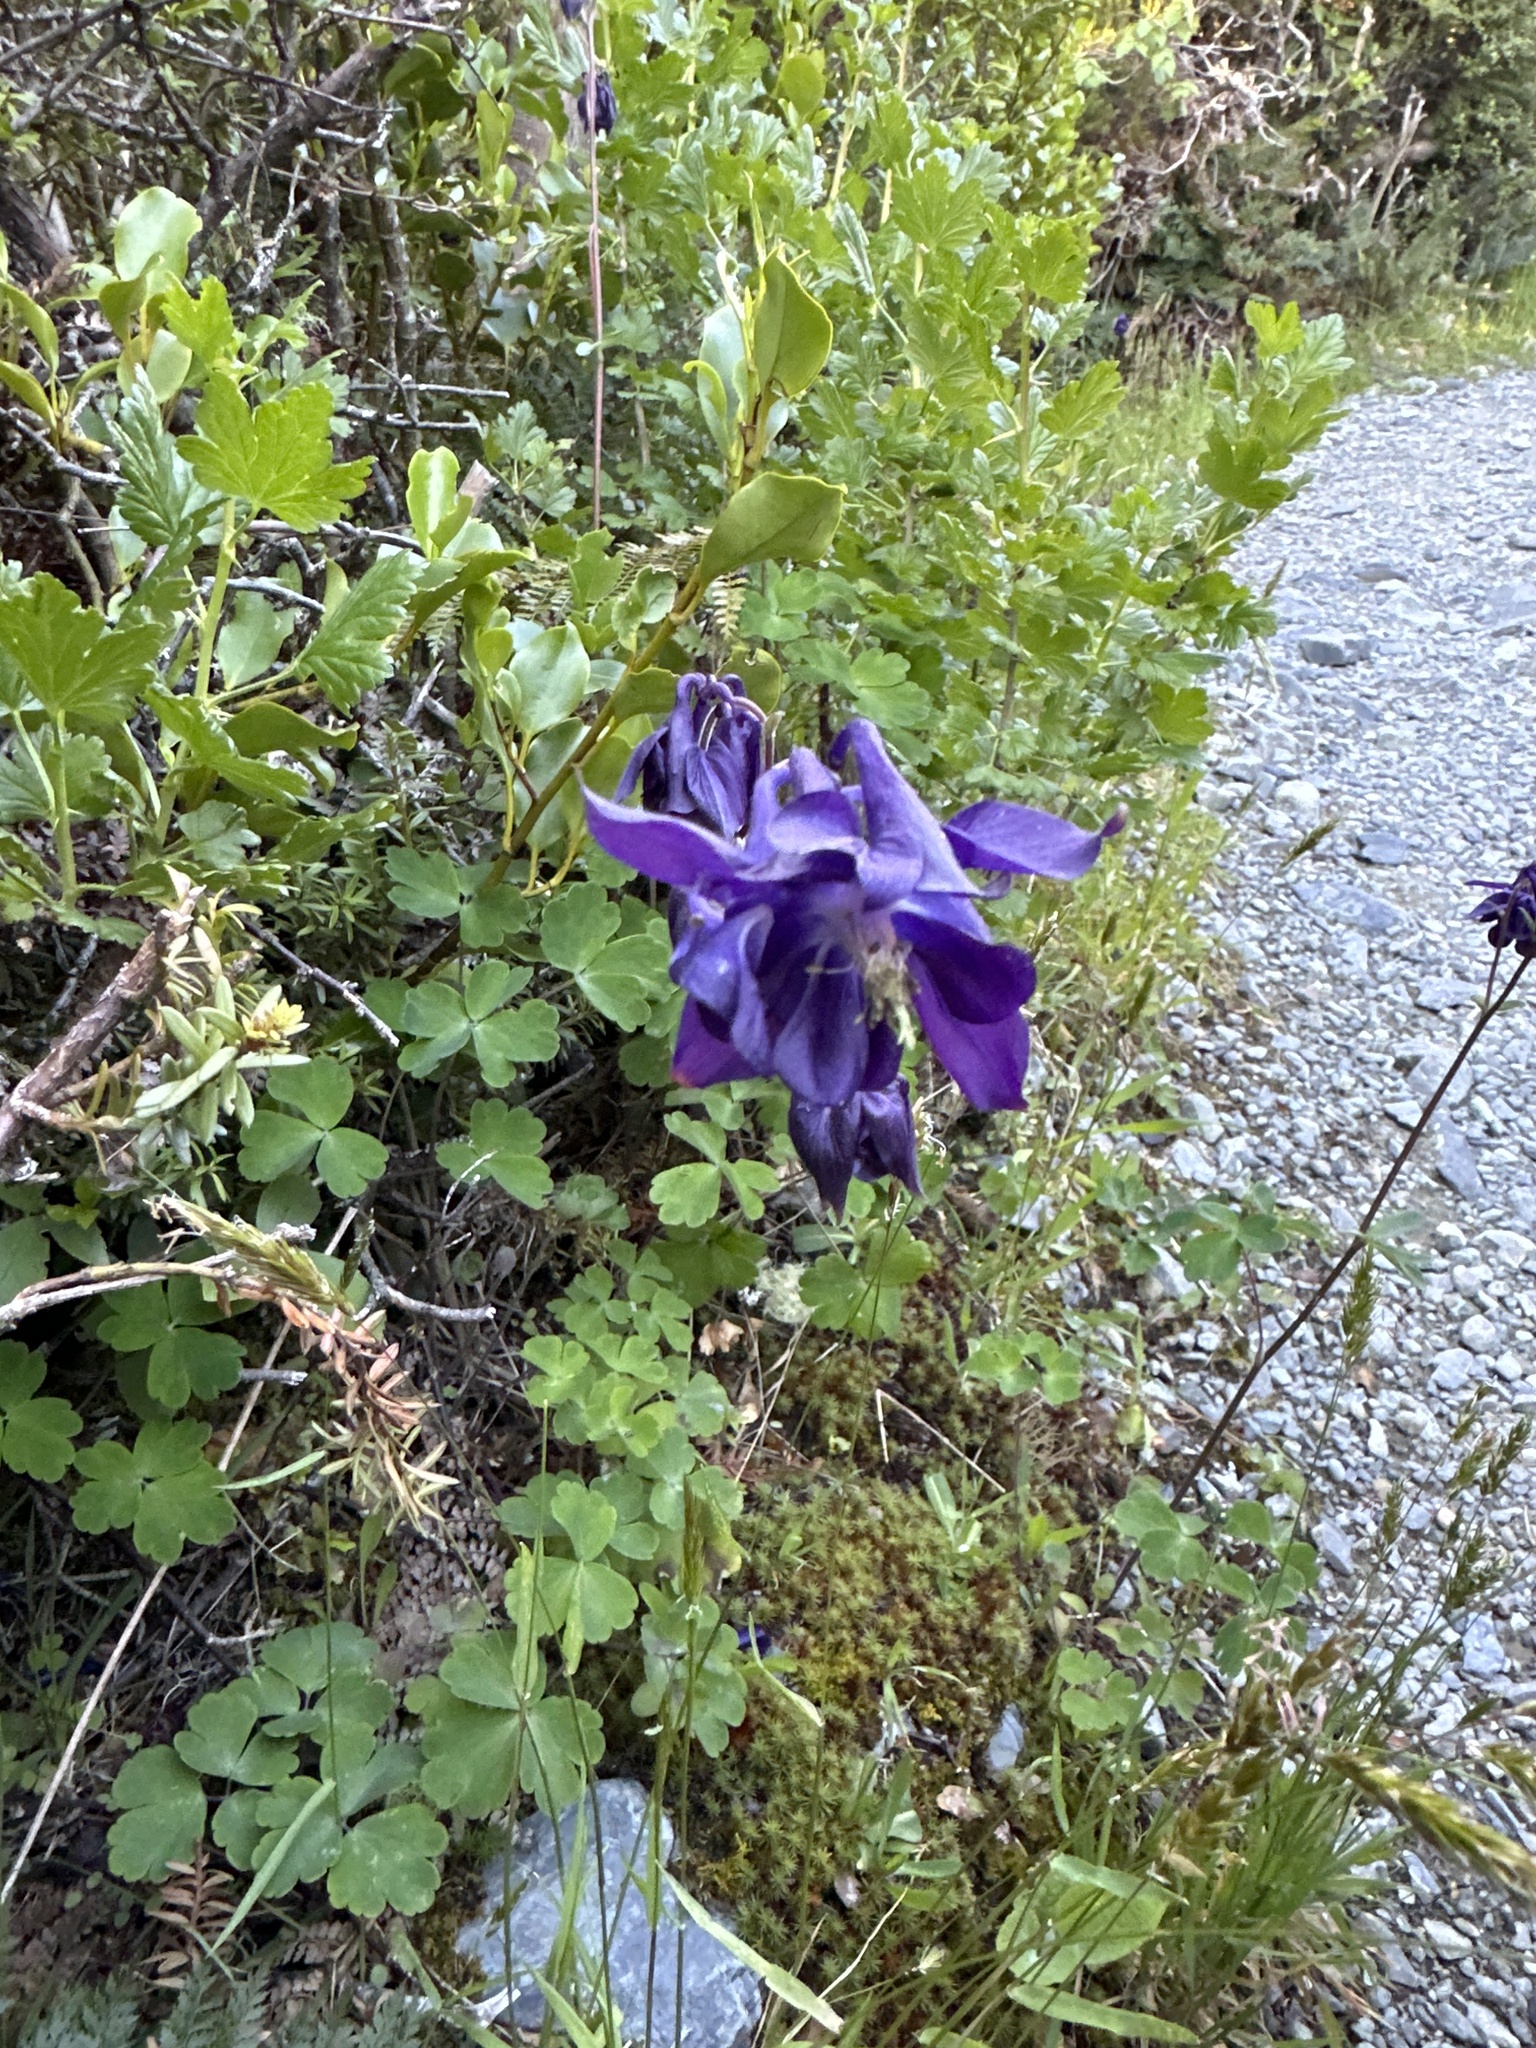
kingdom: Plantae
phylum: Tracheophyta
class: Magnoliopsida
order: Ranunculales
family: Ranunculaceae
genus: Aquilegia
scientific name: Aquilegia vulgaris
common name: Columbine
